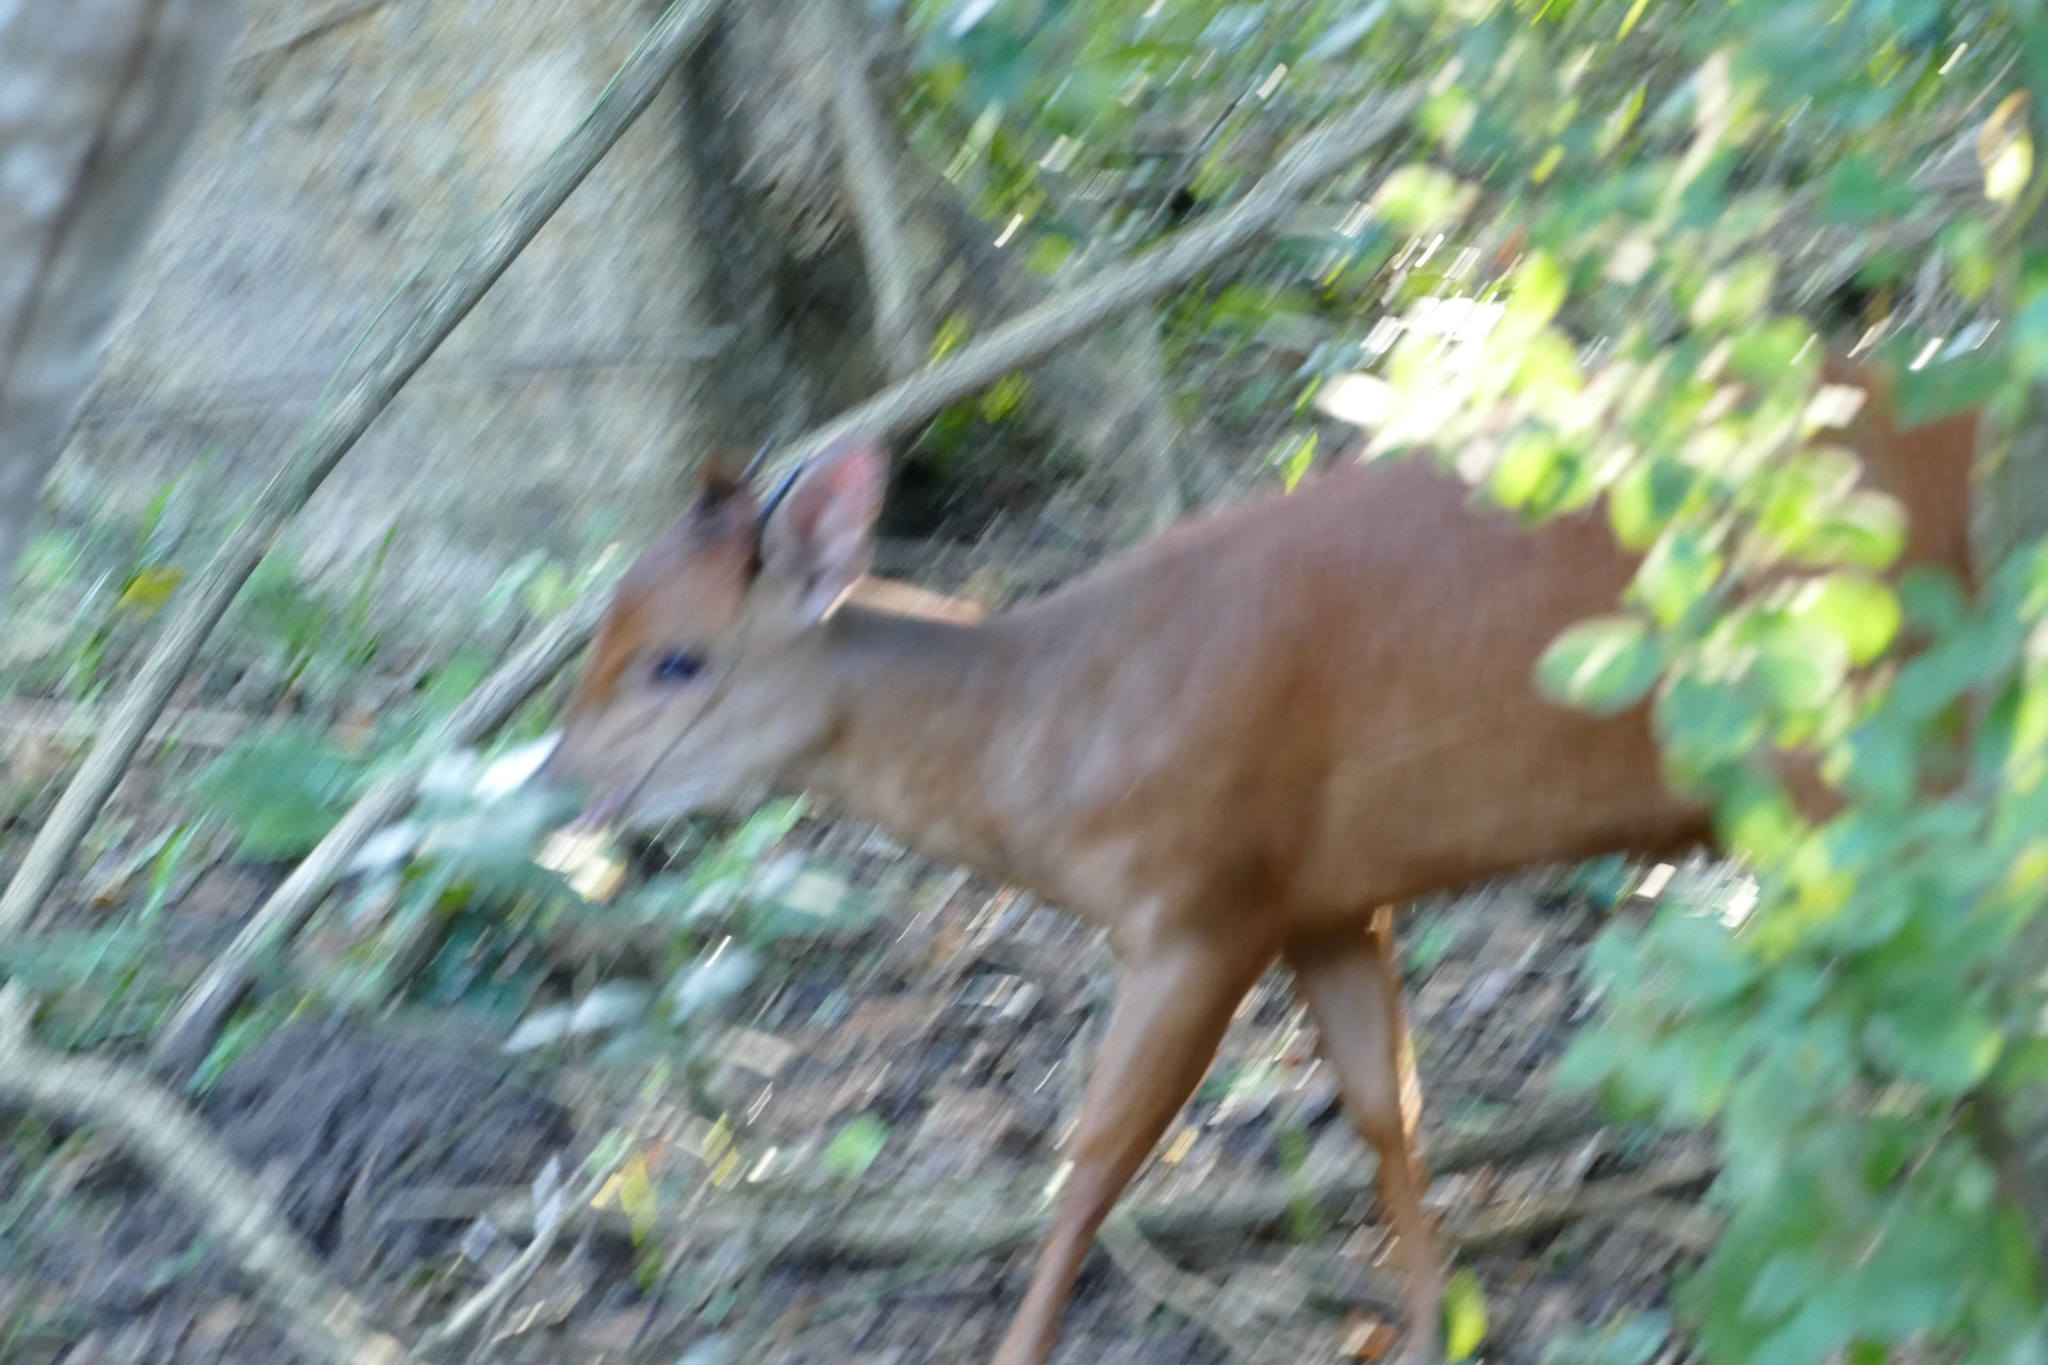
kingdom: Animalia
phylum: Chordata
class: Mammalia
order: Artiodactyla
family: Bovidae
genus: Cephalophus
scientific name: Cephalophus natalensis
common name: Red duiker
